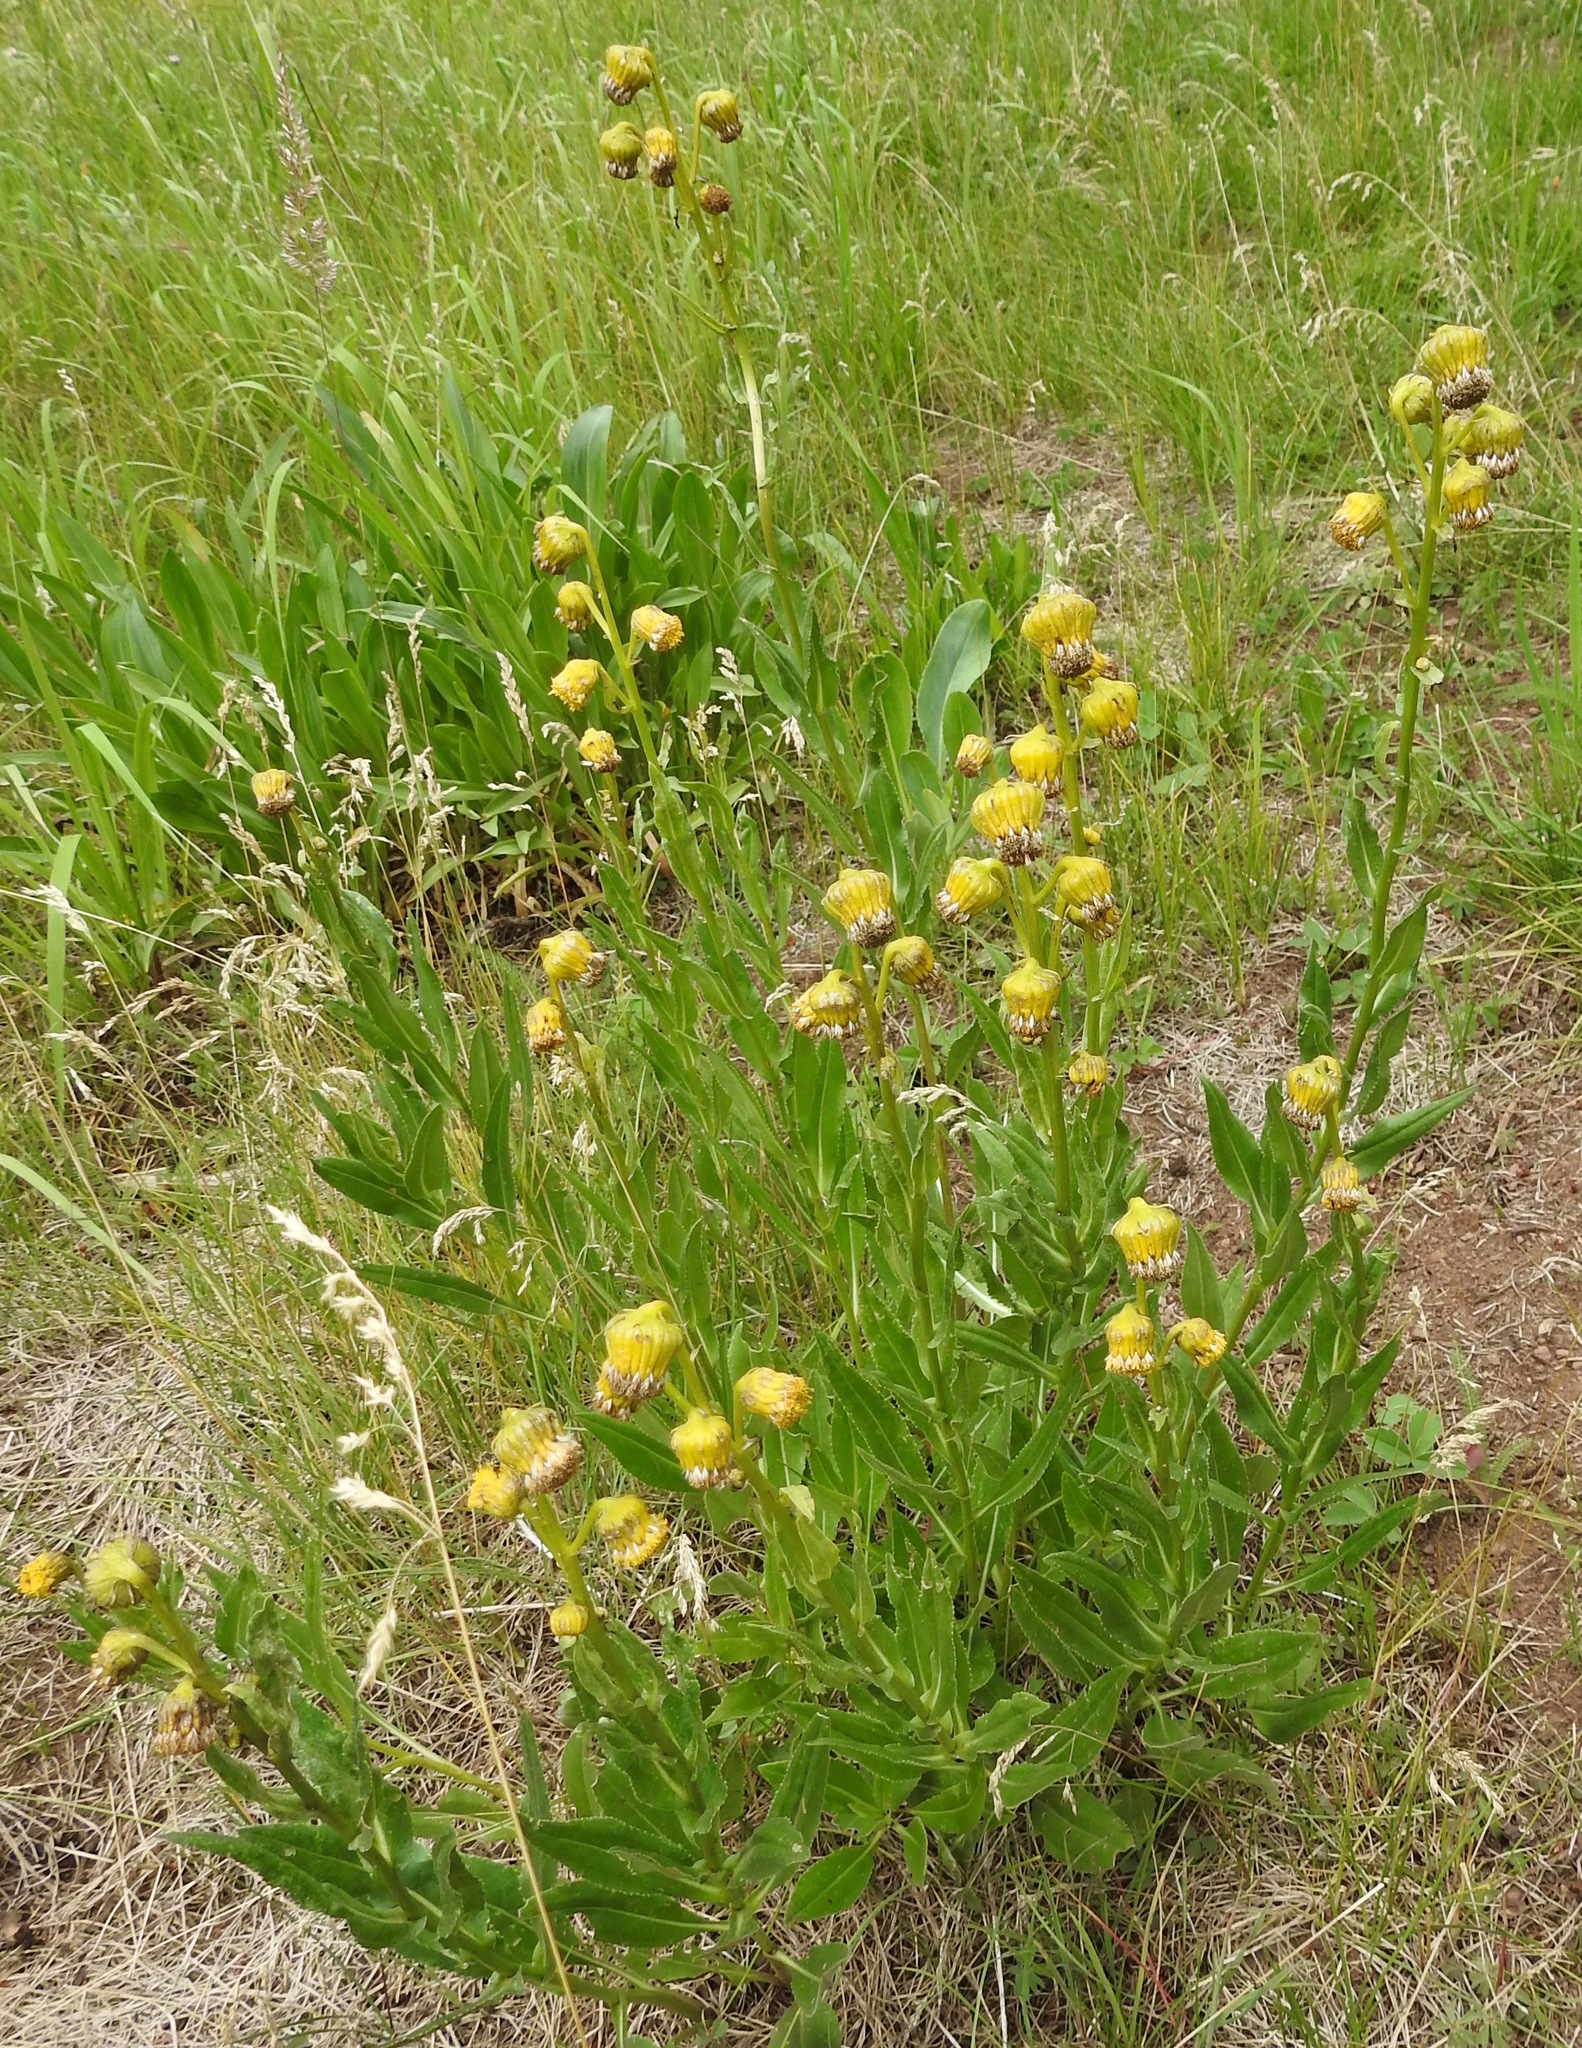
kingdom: Plantae
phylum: Tracheophyta
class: Magnoliopsida
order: Asterales
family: Asteraceae
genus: Senecio
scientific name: Senecio bigelovii
